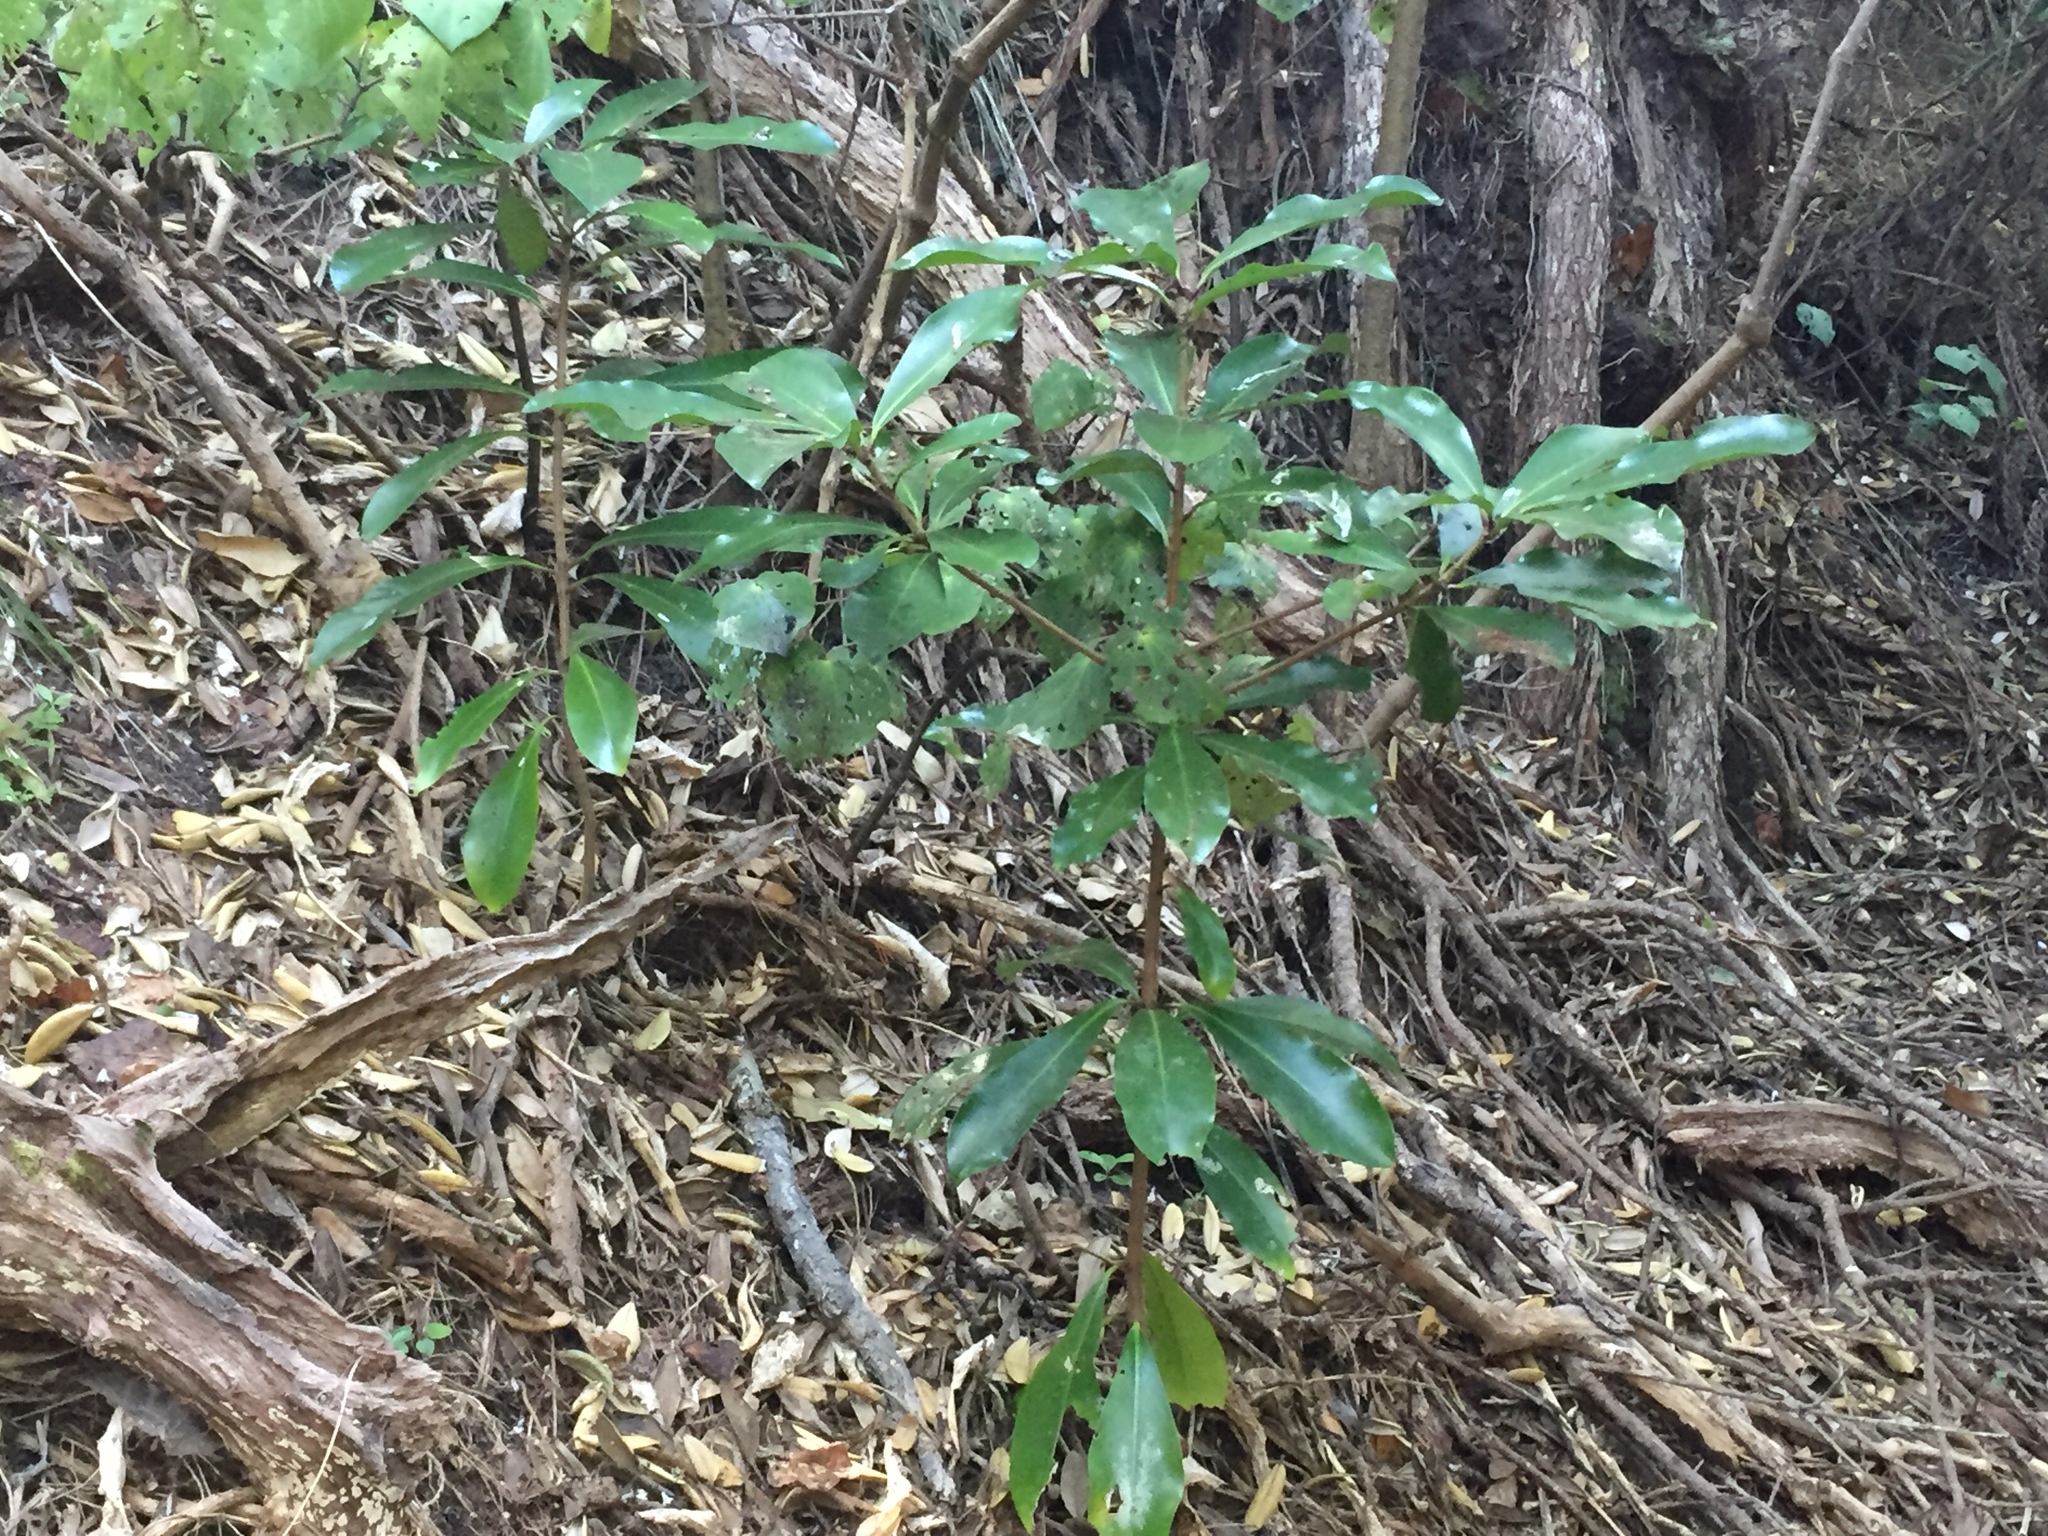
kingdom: Plantae
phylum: Tracheophyta
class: Magnoliopsida
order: Cucurbitales
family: Corynocarpaceae
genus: Corynocarpus
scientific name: Corynocarpus laevigatus
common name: New zealand laurel
